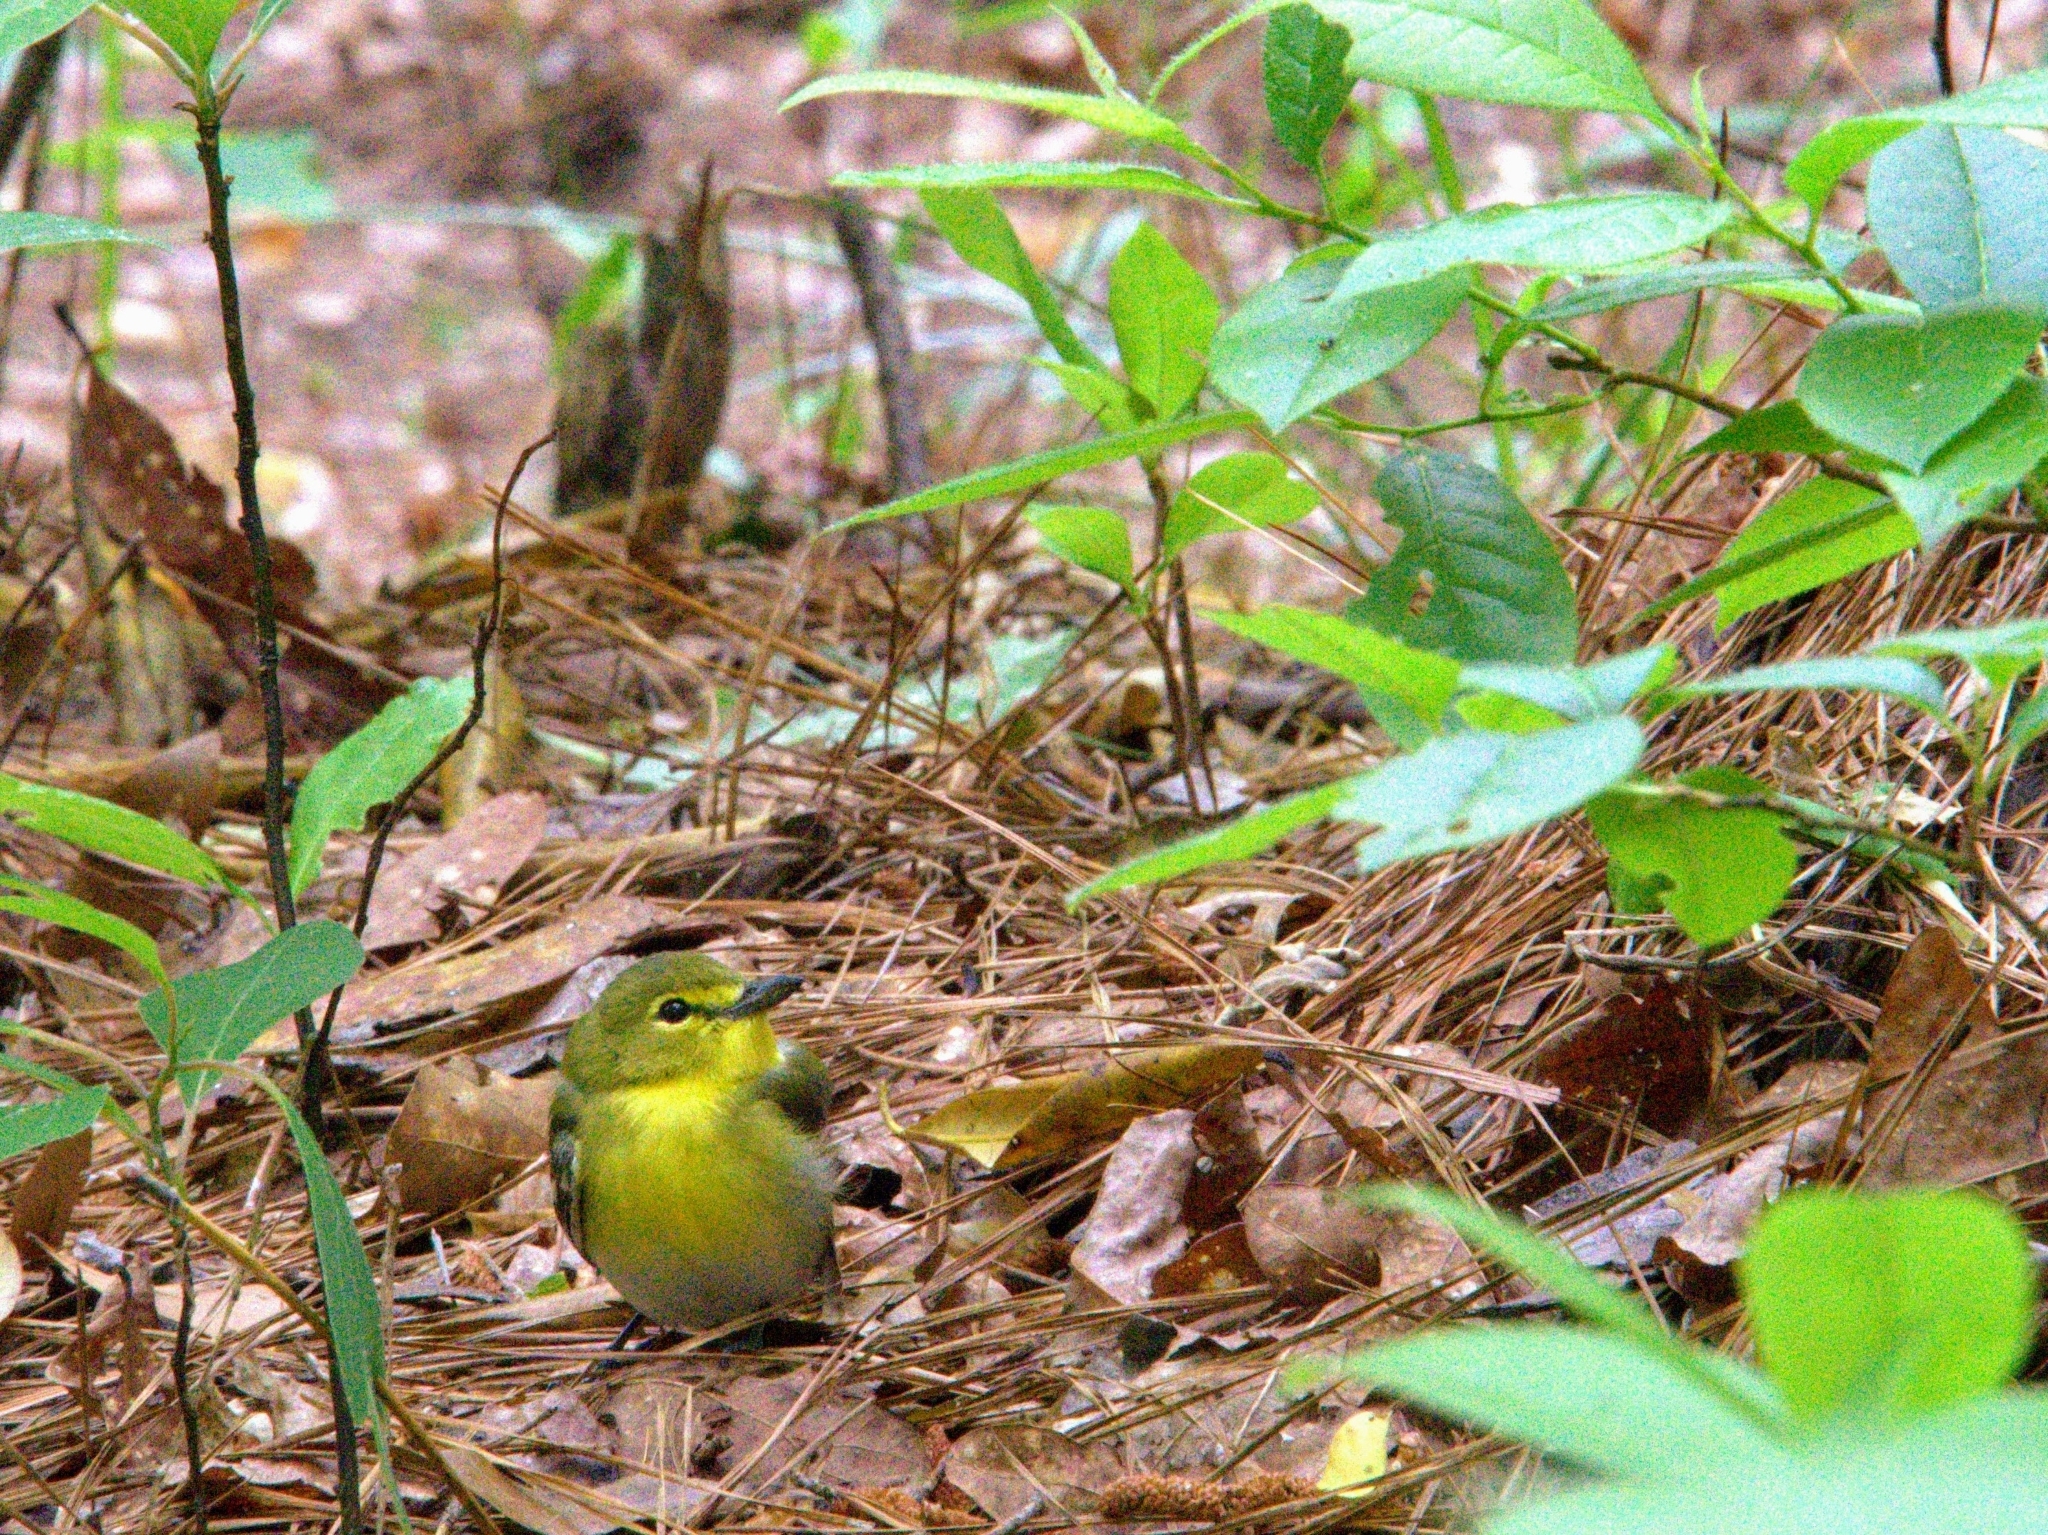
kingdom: Animalia
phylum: Chordata
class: Aves
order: Passeriformes
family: Vireonidae
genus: Vireo
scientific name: Vireo flavifrons
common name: Yellow-throated vireo
